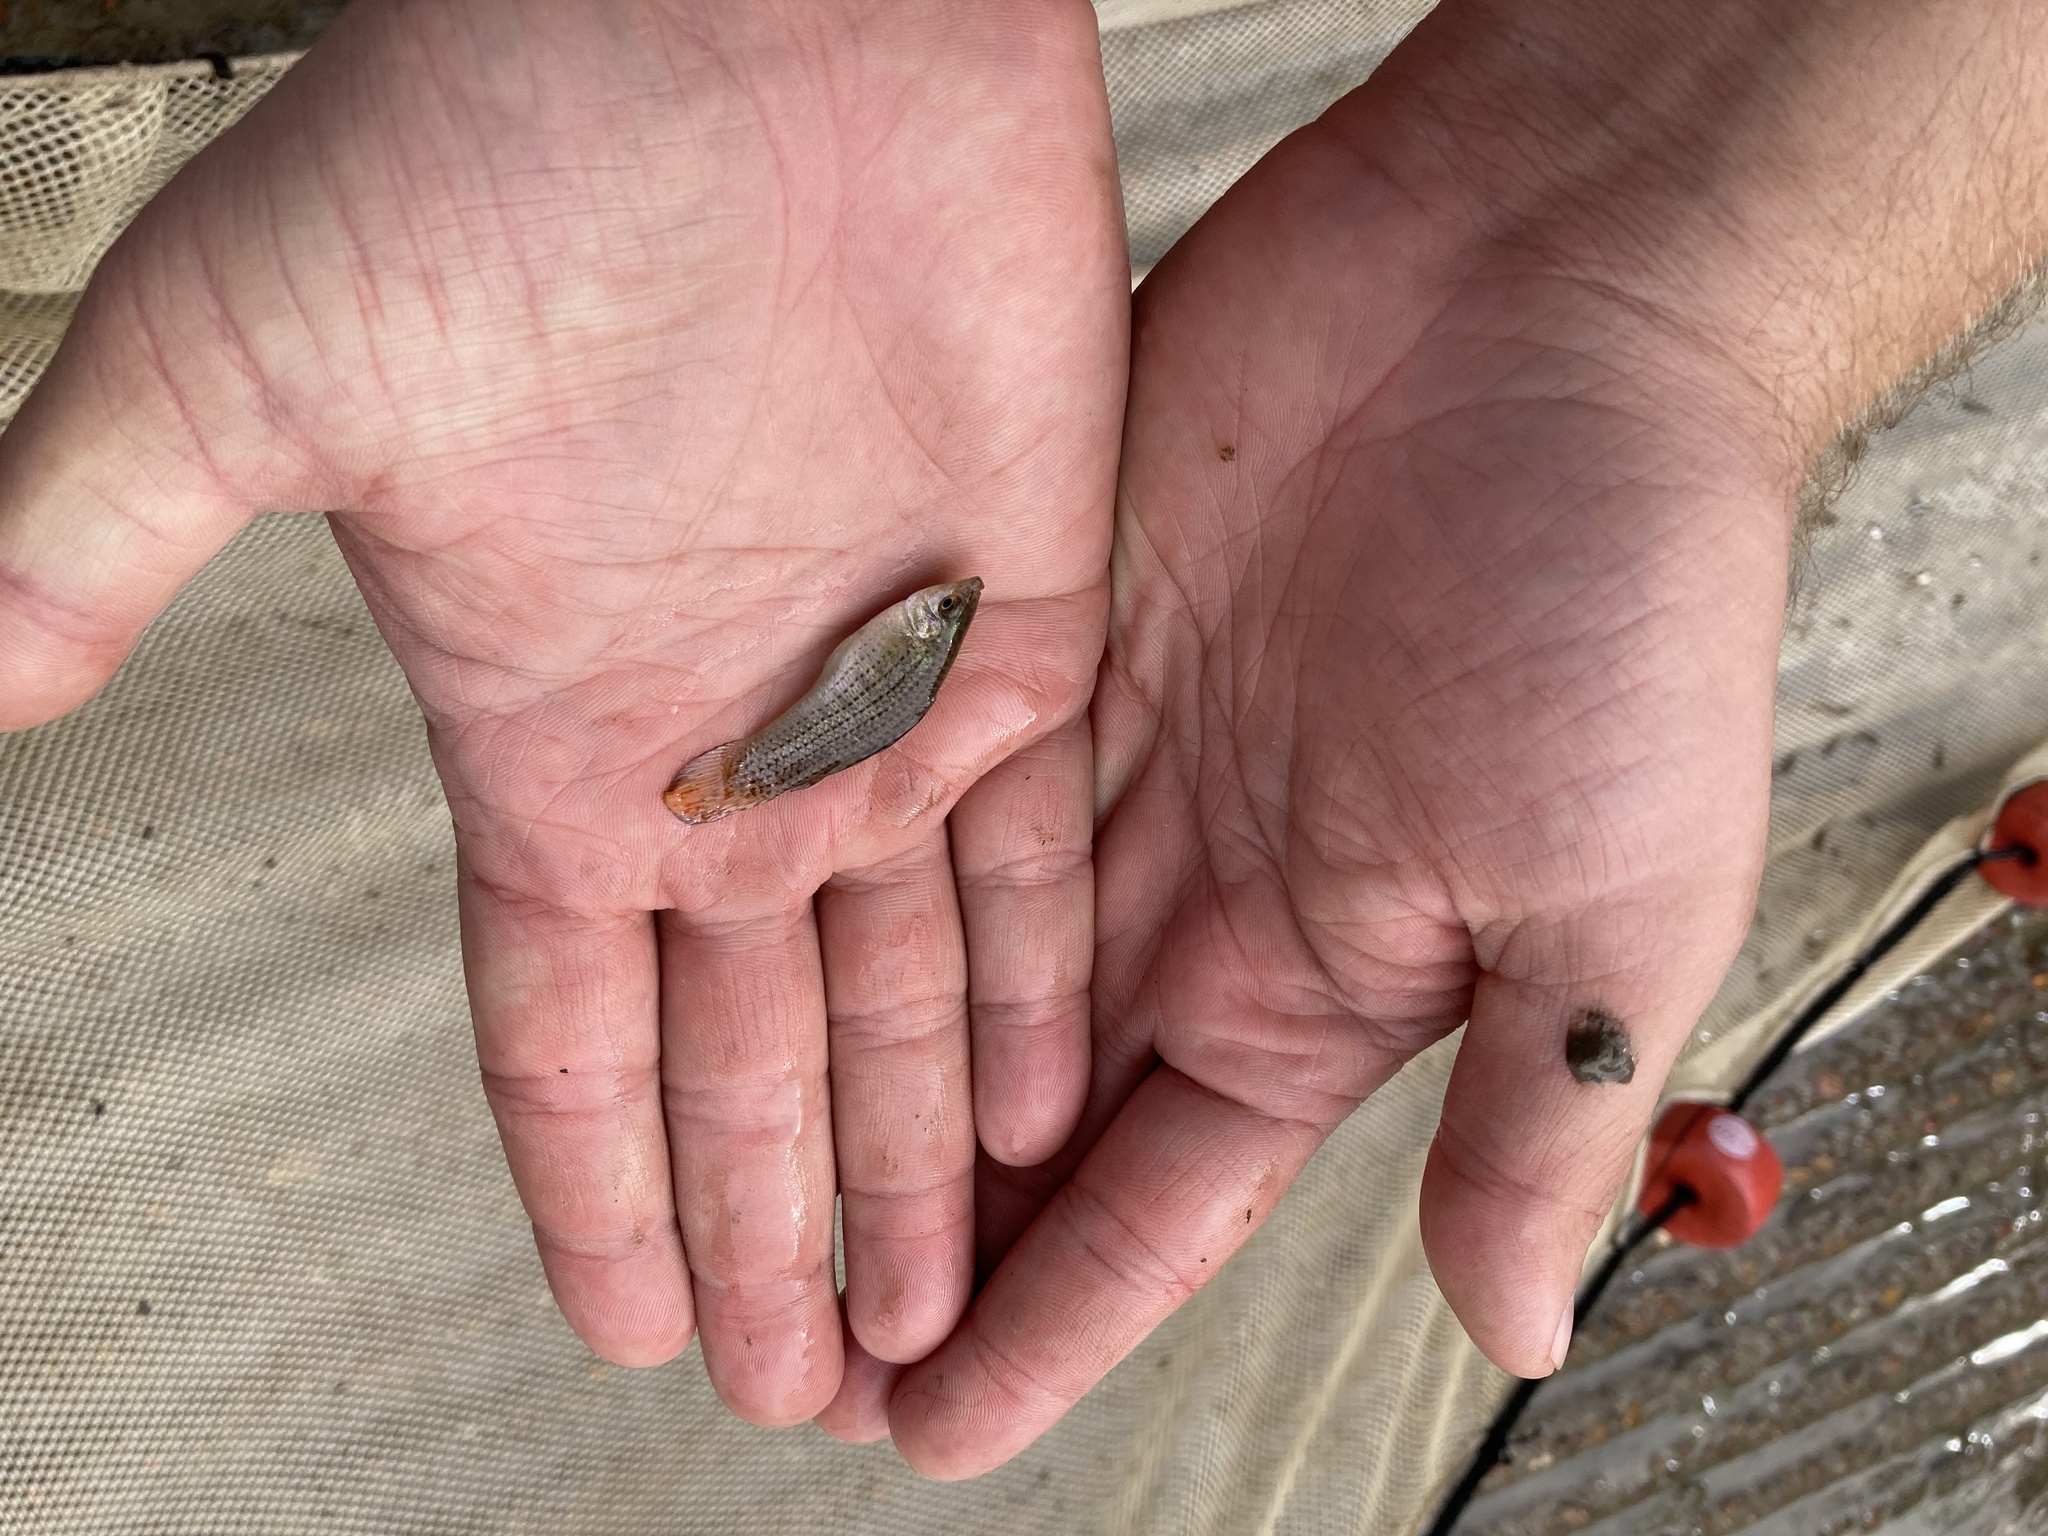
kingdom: Animalia
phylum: Chordata
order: Cyprinodontiformes
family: Poeciliidae
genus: Poecilia
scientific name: Poecilia latipinna
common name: Sailfin molly
